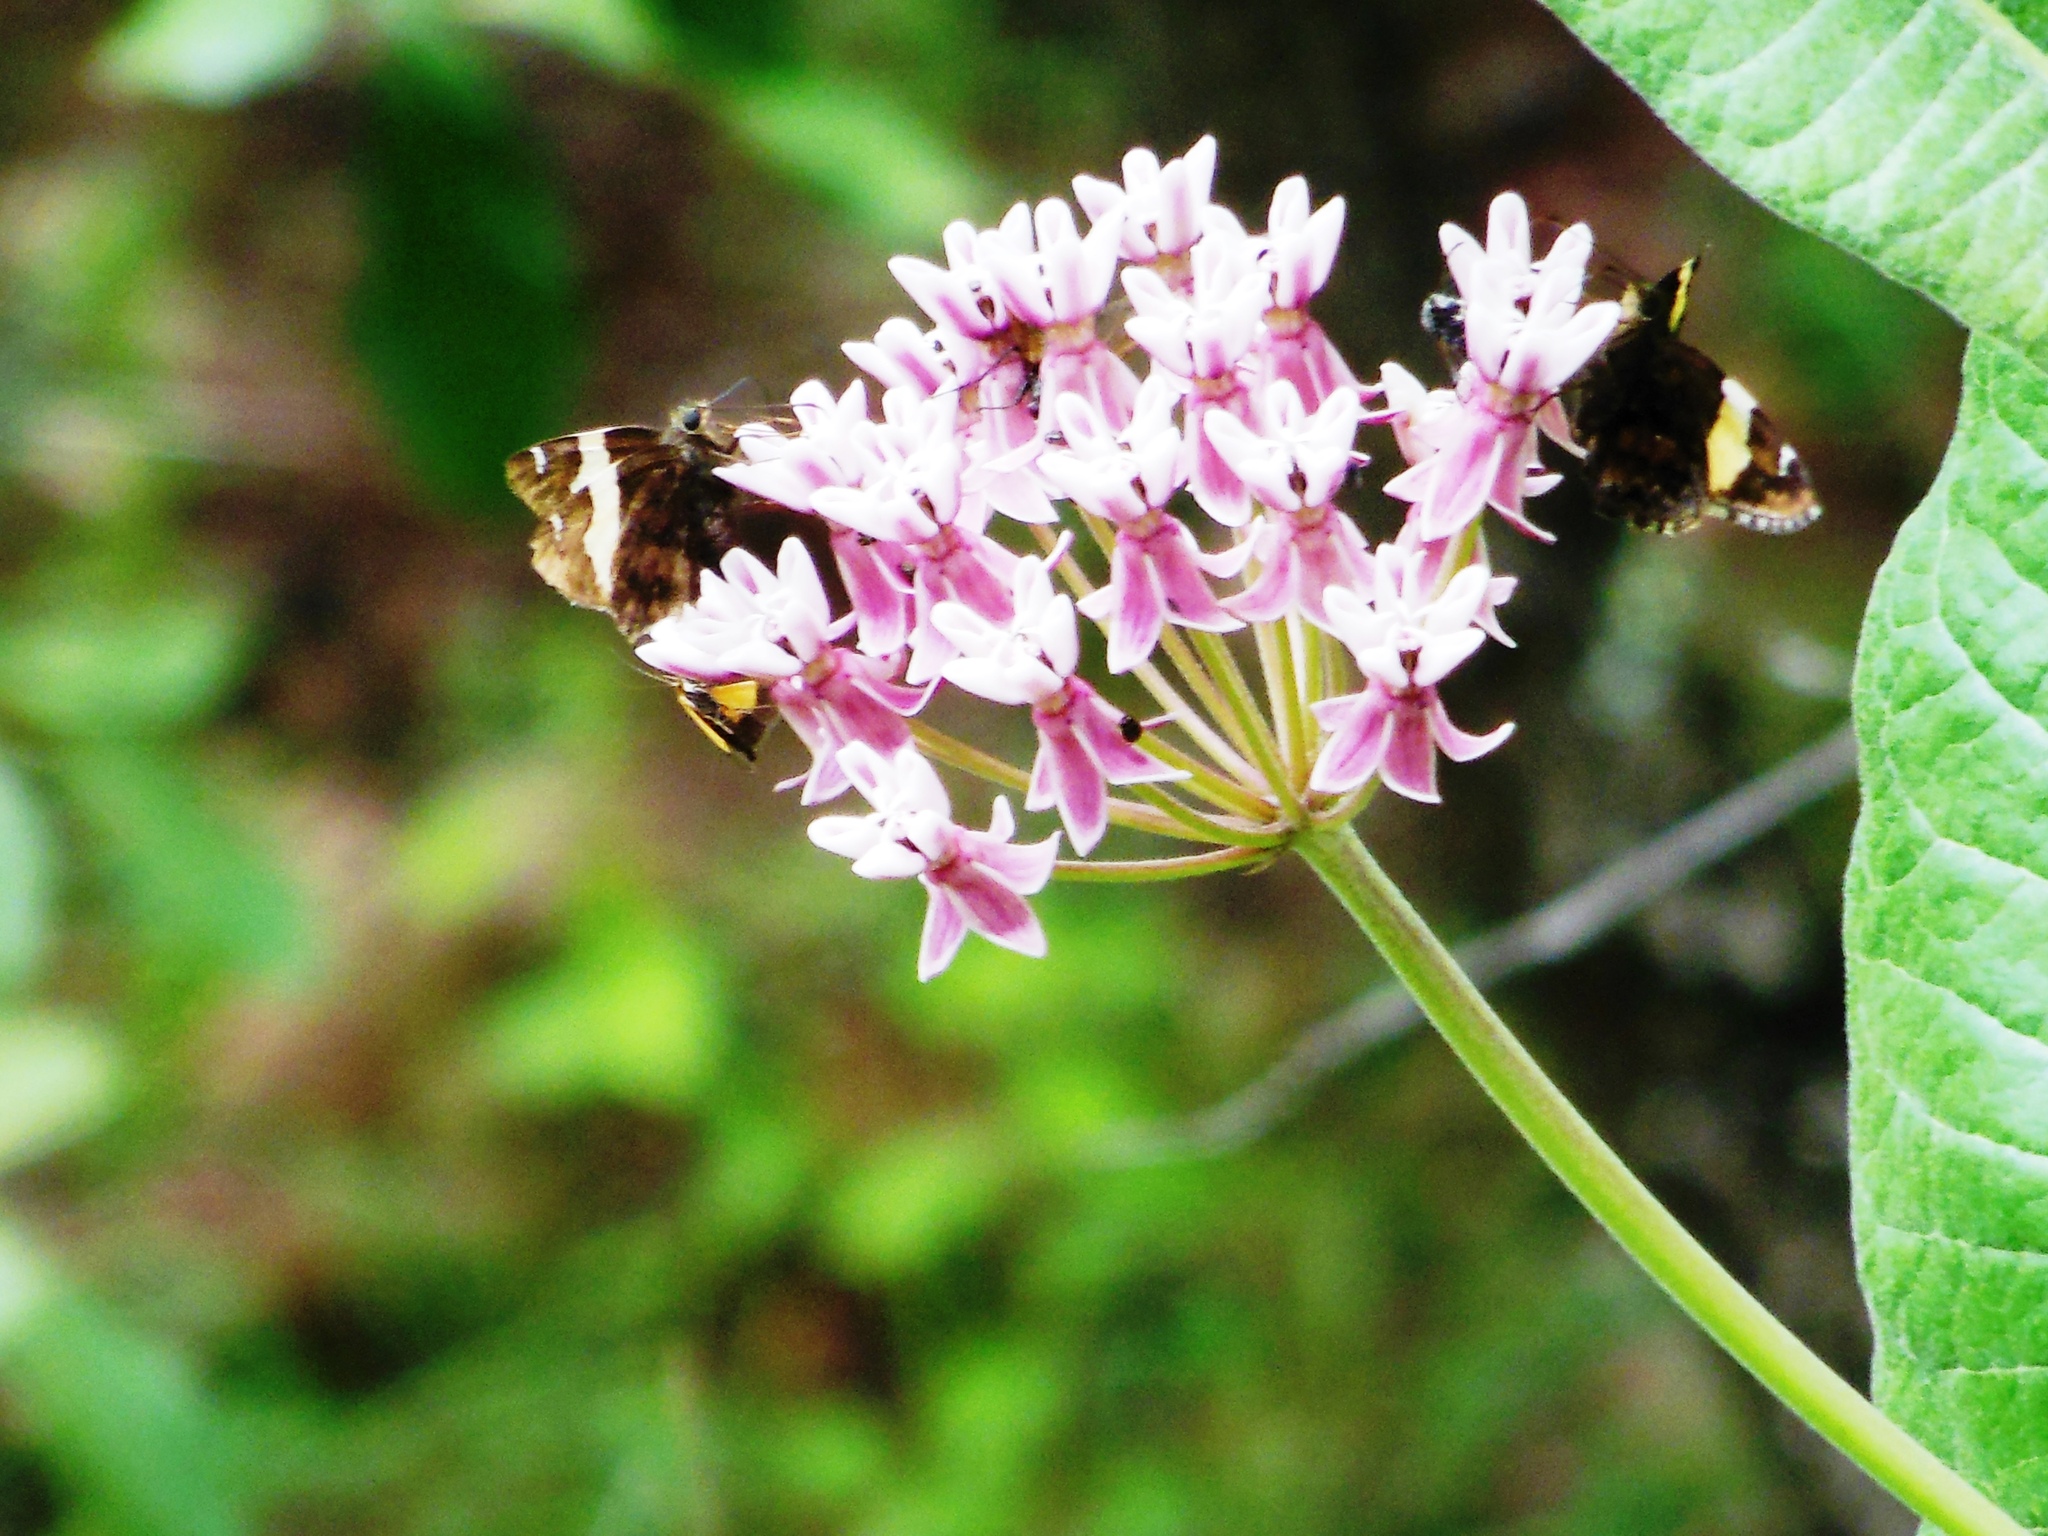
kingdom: Animalia
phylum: Arthropoda
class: Arachnida
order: Scorpiones
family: Bothriuridae
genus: Telegonus
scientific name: Telegonus cellus
